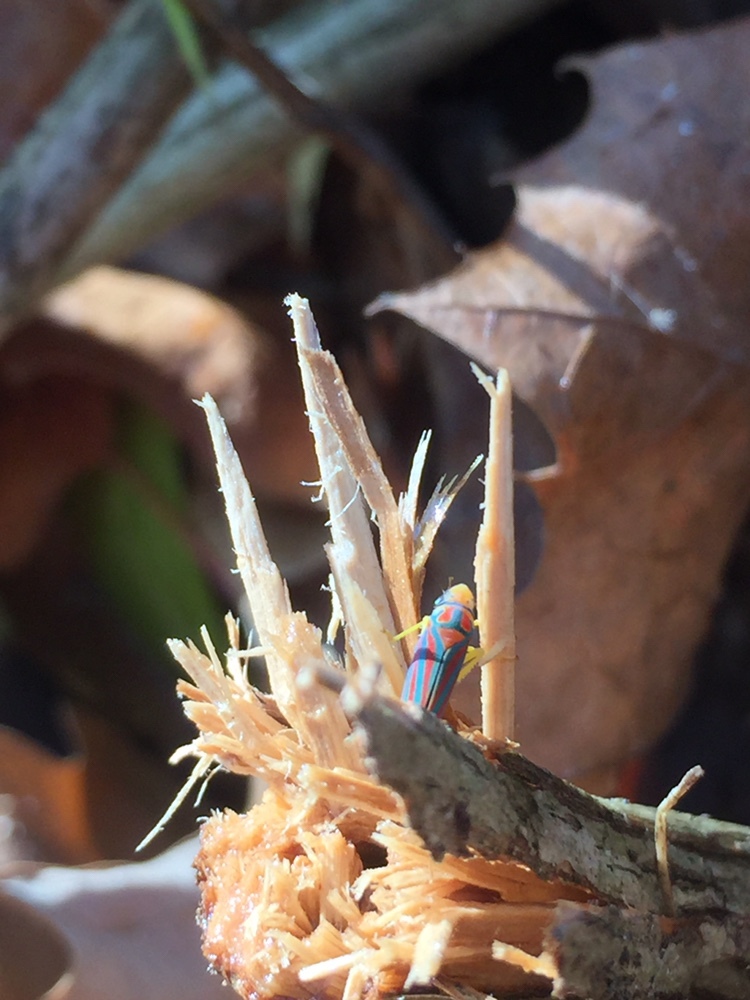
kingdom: Animalia
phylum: Arthropoda
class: Insecta
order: Hemiptera
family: Cicadellidae
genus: Graphocephala
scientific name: Graphocephala coccinea
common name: Candy-striped leafhopper
